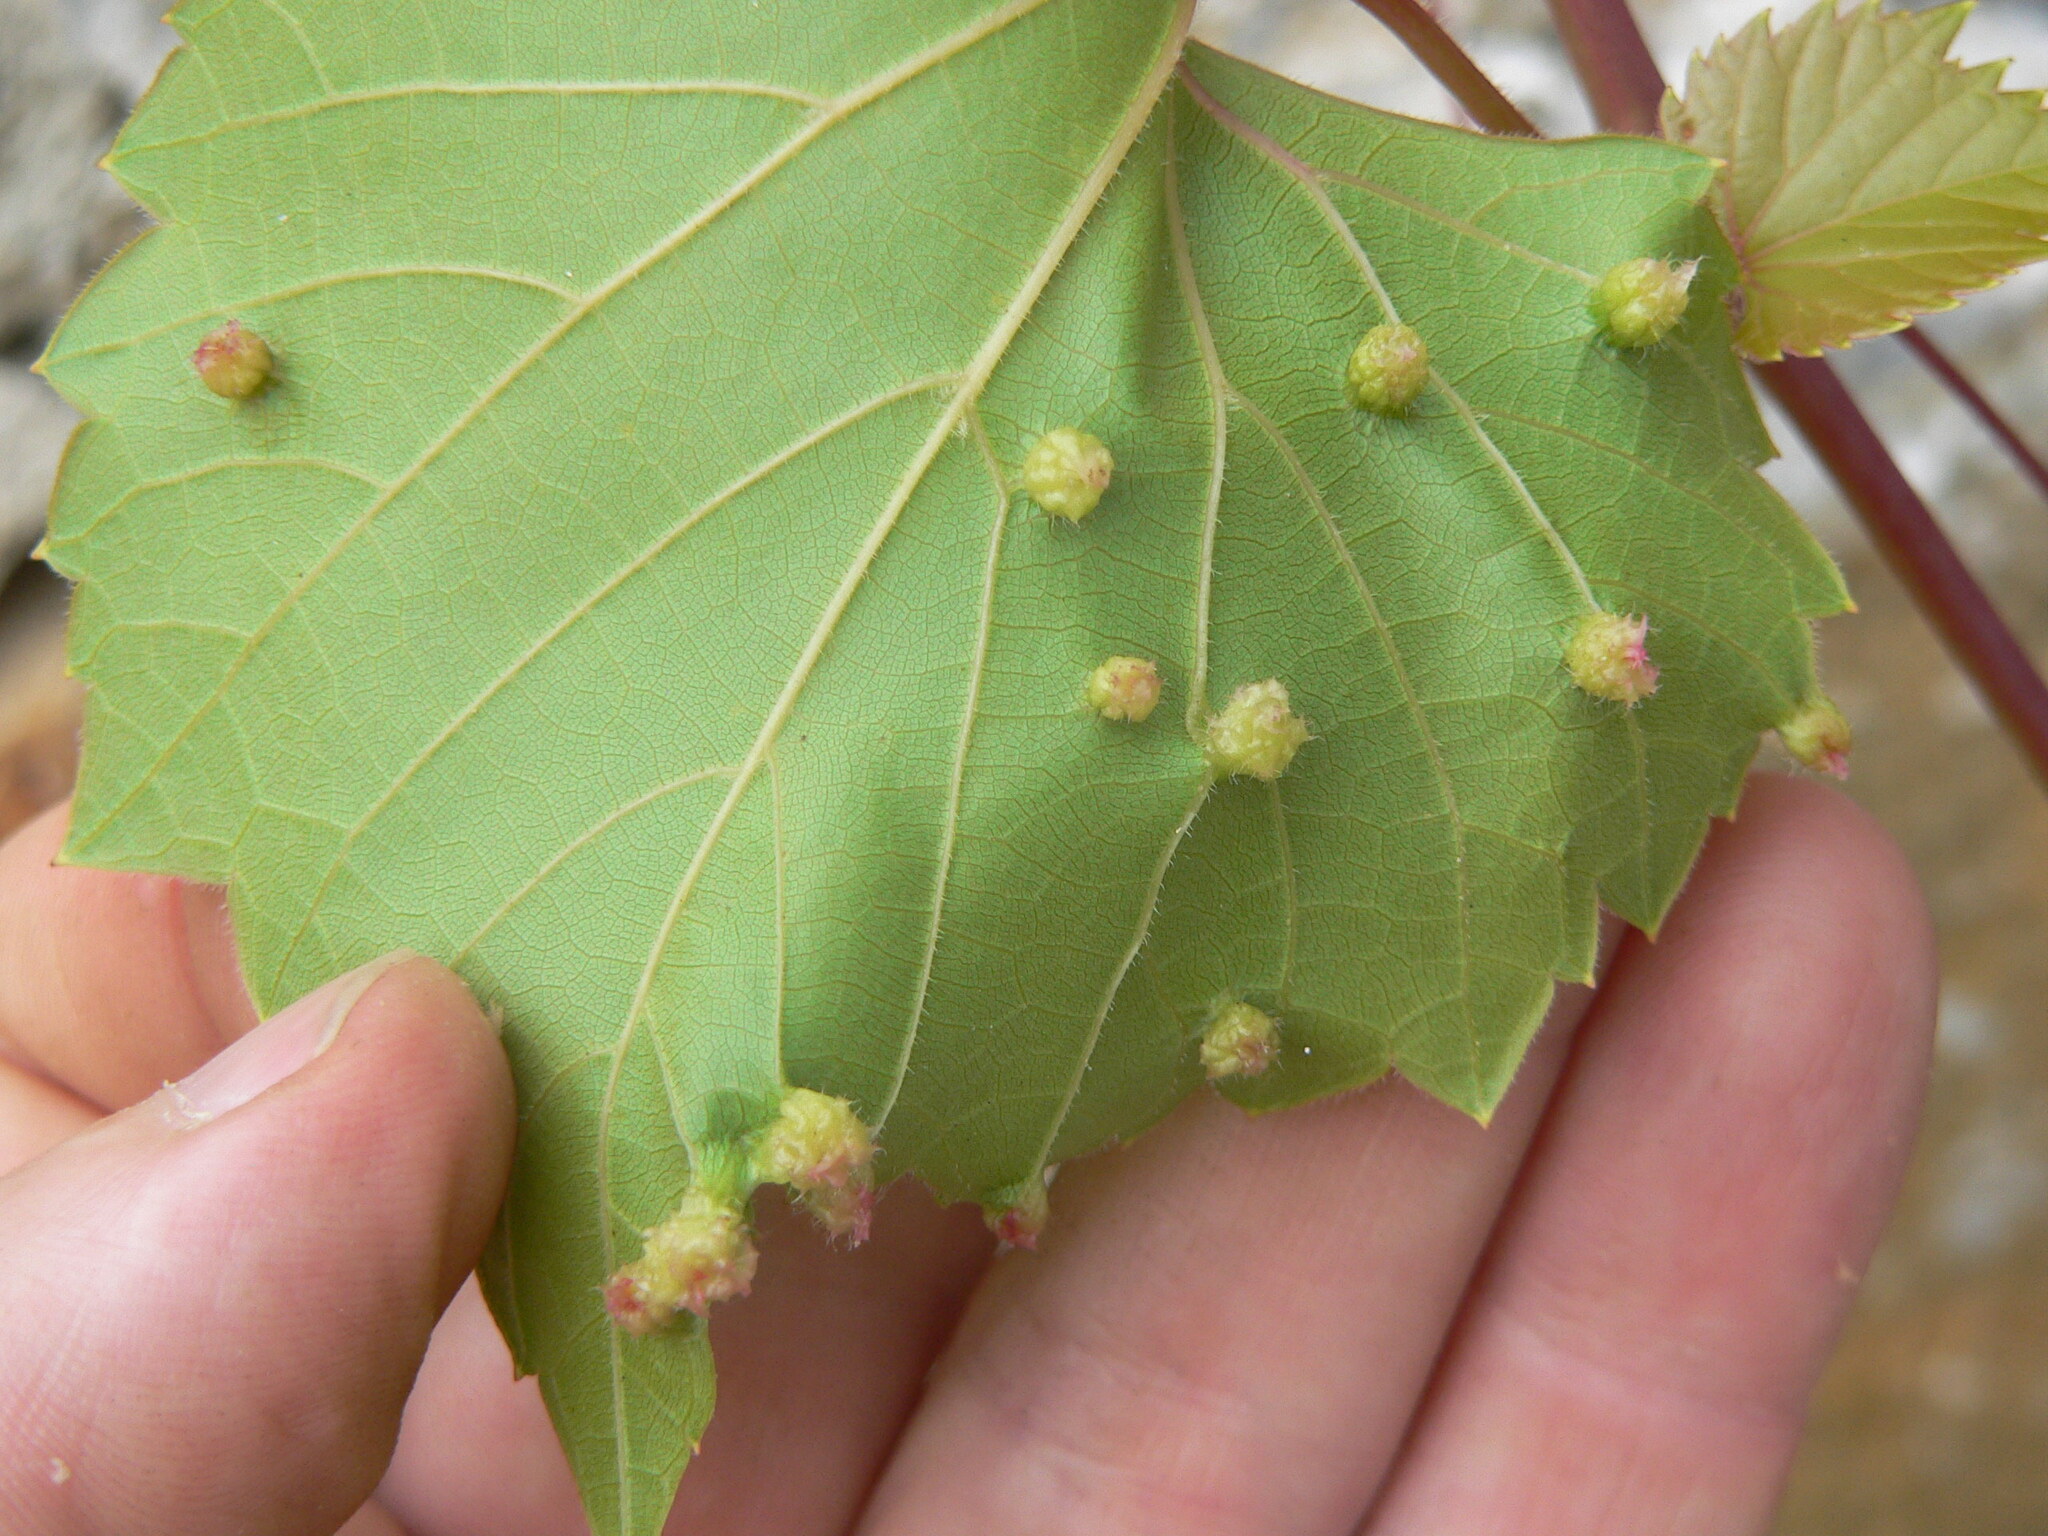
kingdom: Animalia
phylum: Arthropoda
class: Insecta
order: Hemiptera
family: Phylloxeridae
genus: Daktulosphaira
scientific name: Daktulosphaira vitifoliae
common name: Grape phylloxera
